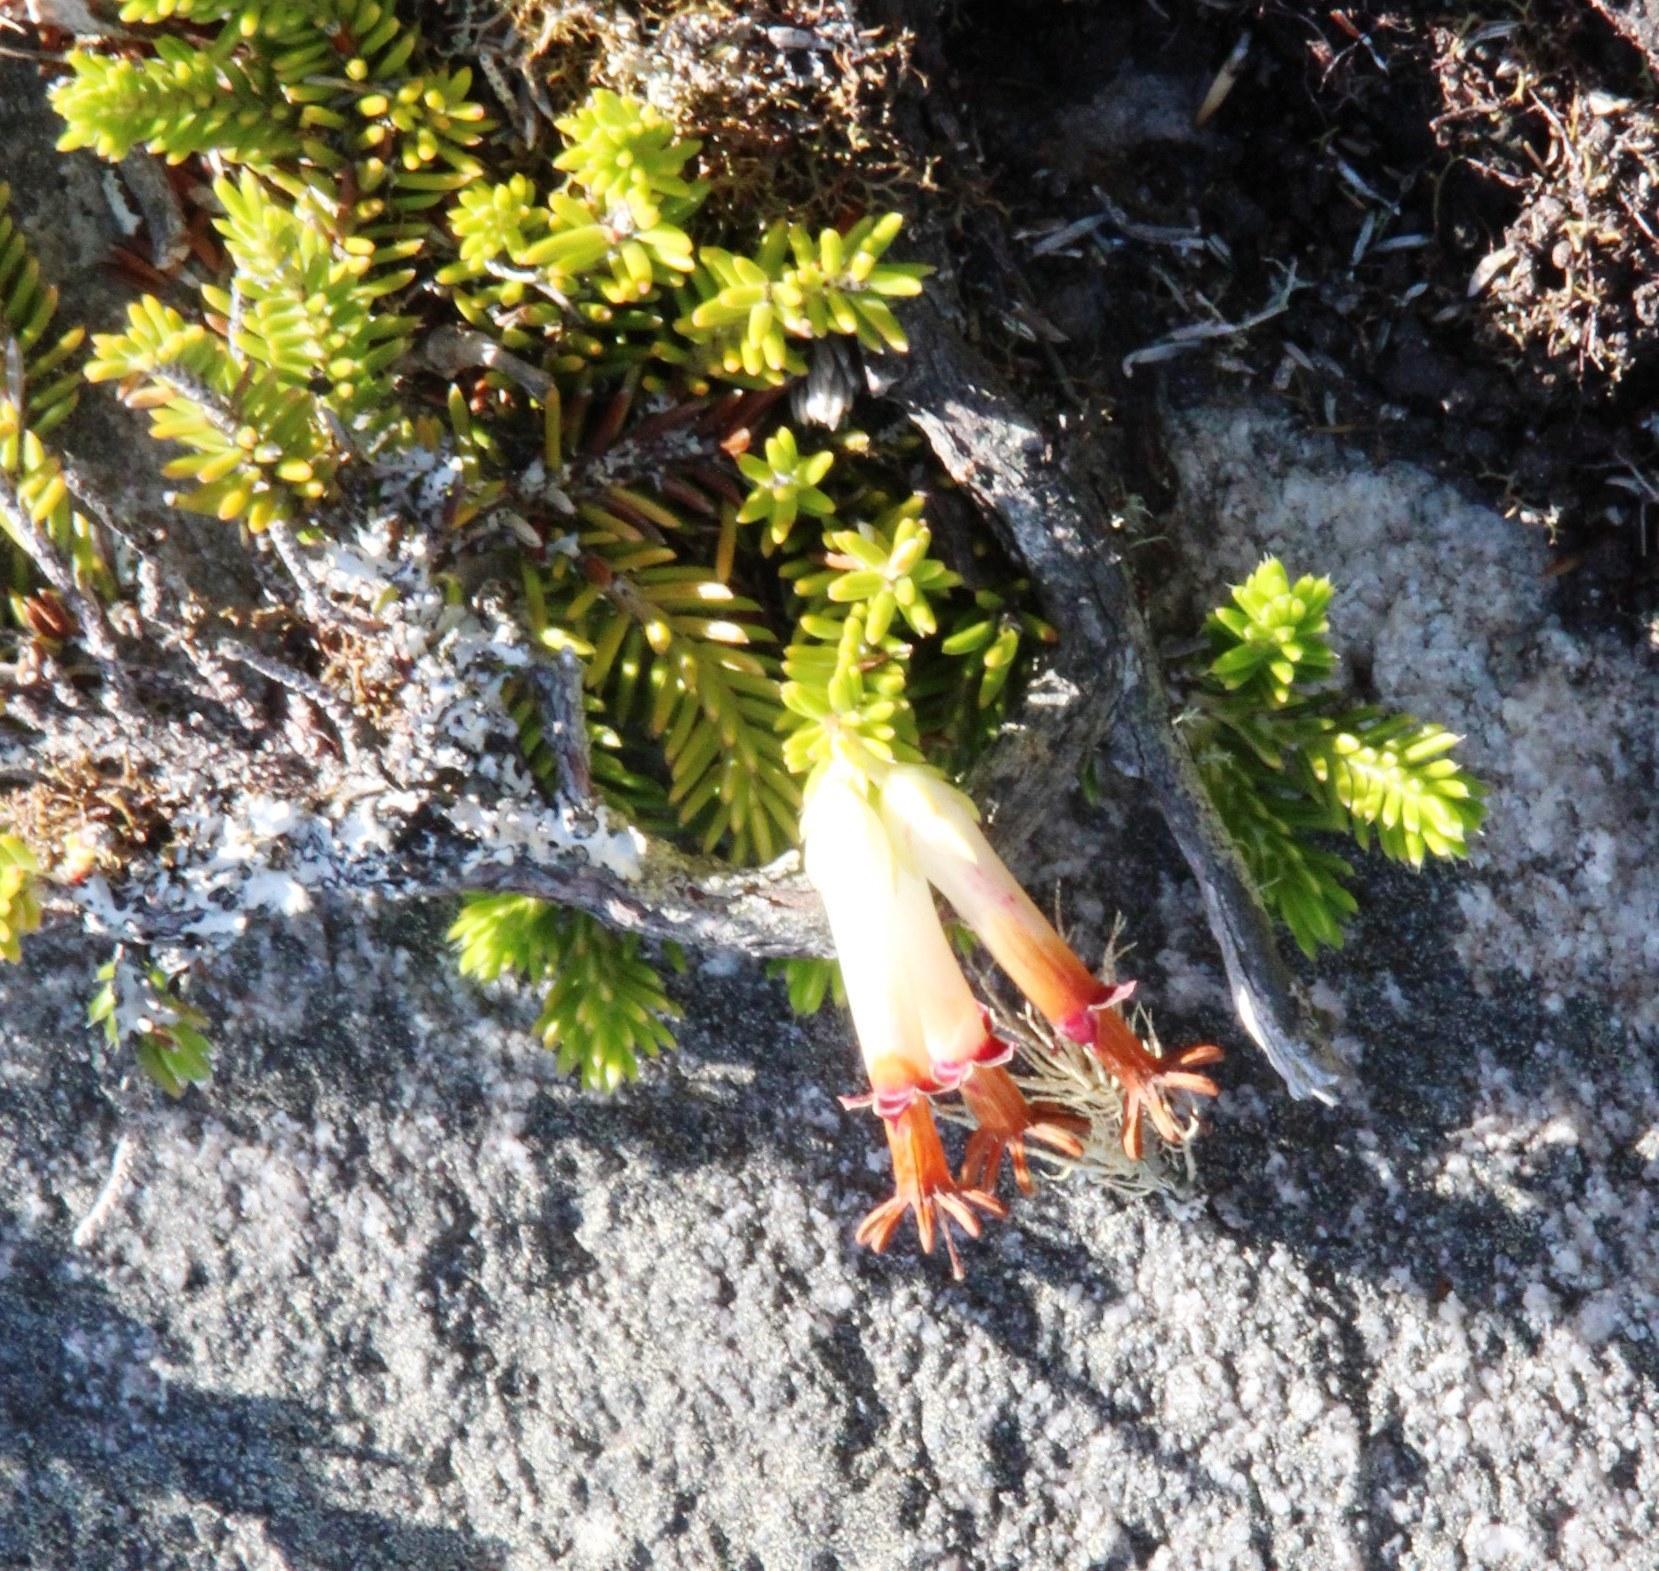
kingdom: Plantae
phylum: Tracheophyta
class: Magnoliopsida
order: Ericales
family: Ericaceae
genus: Erica
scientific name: Erica banksia
